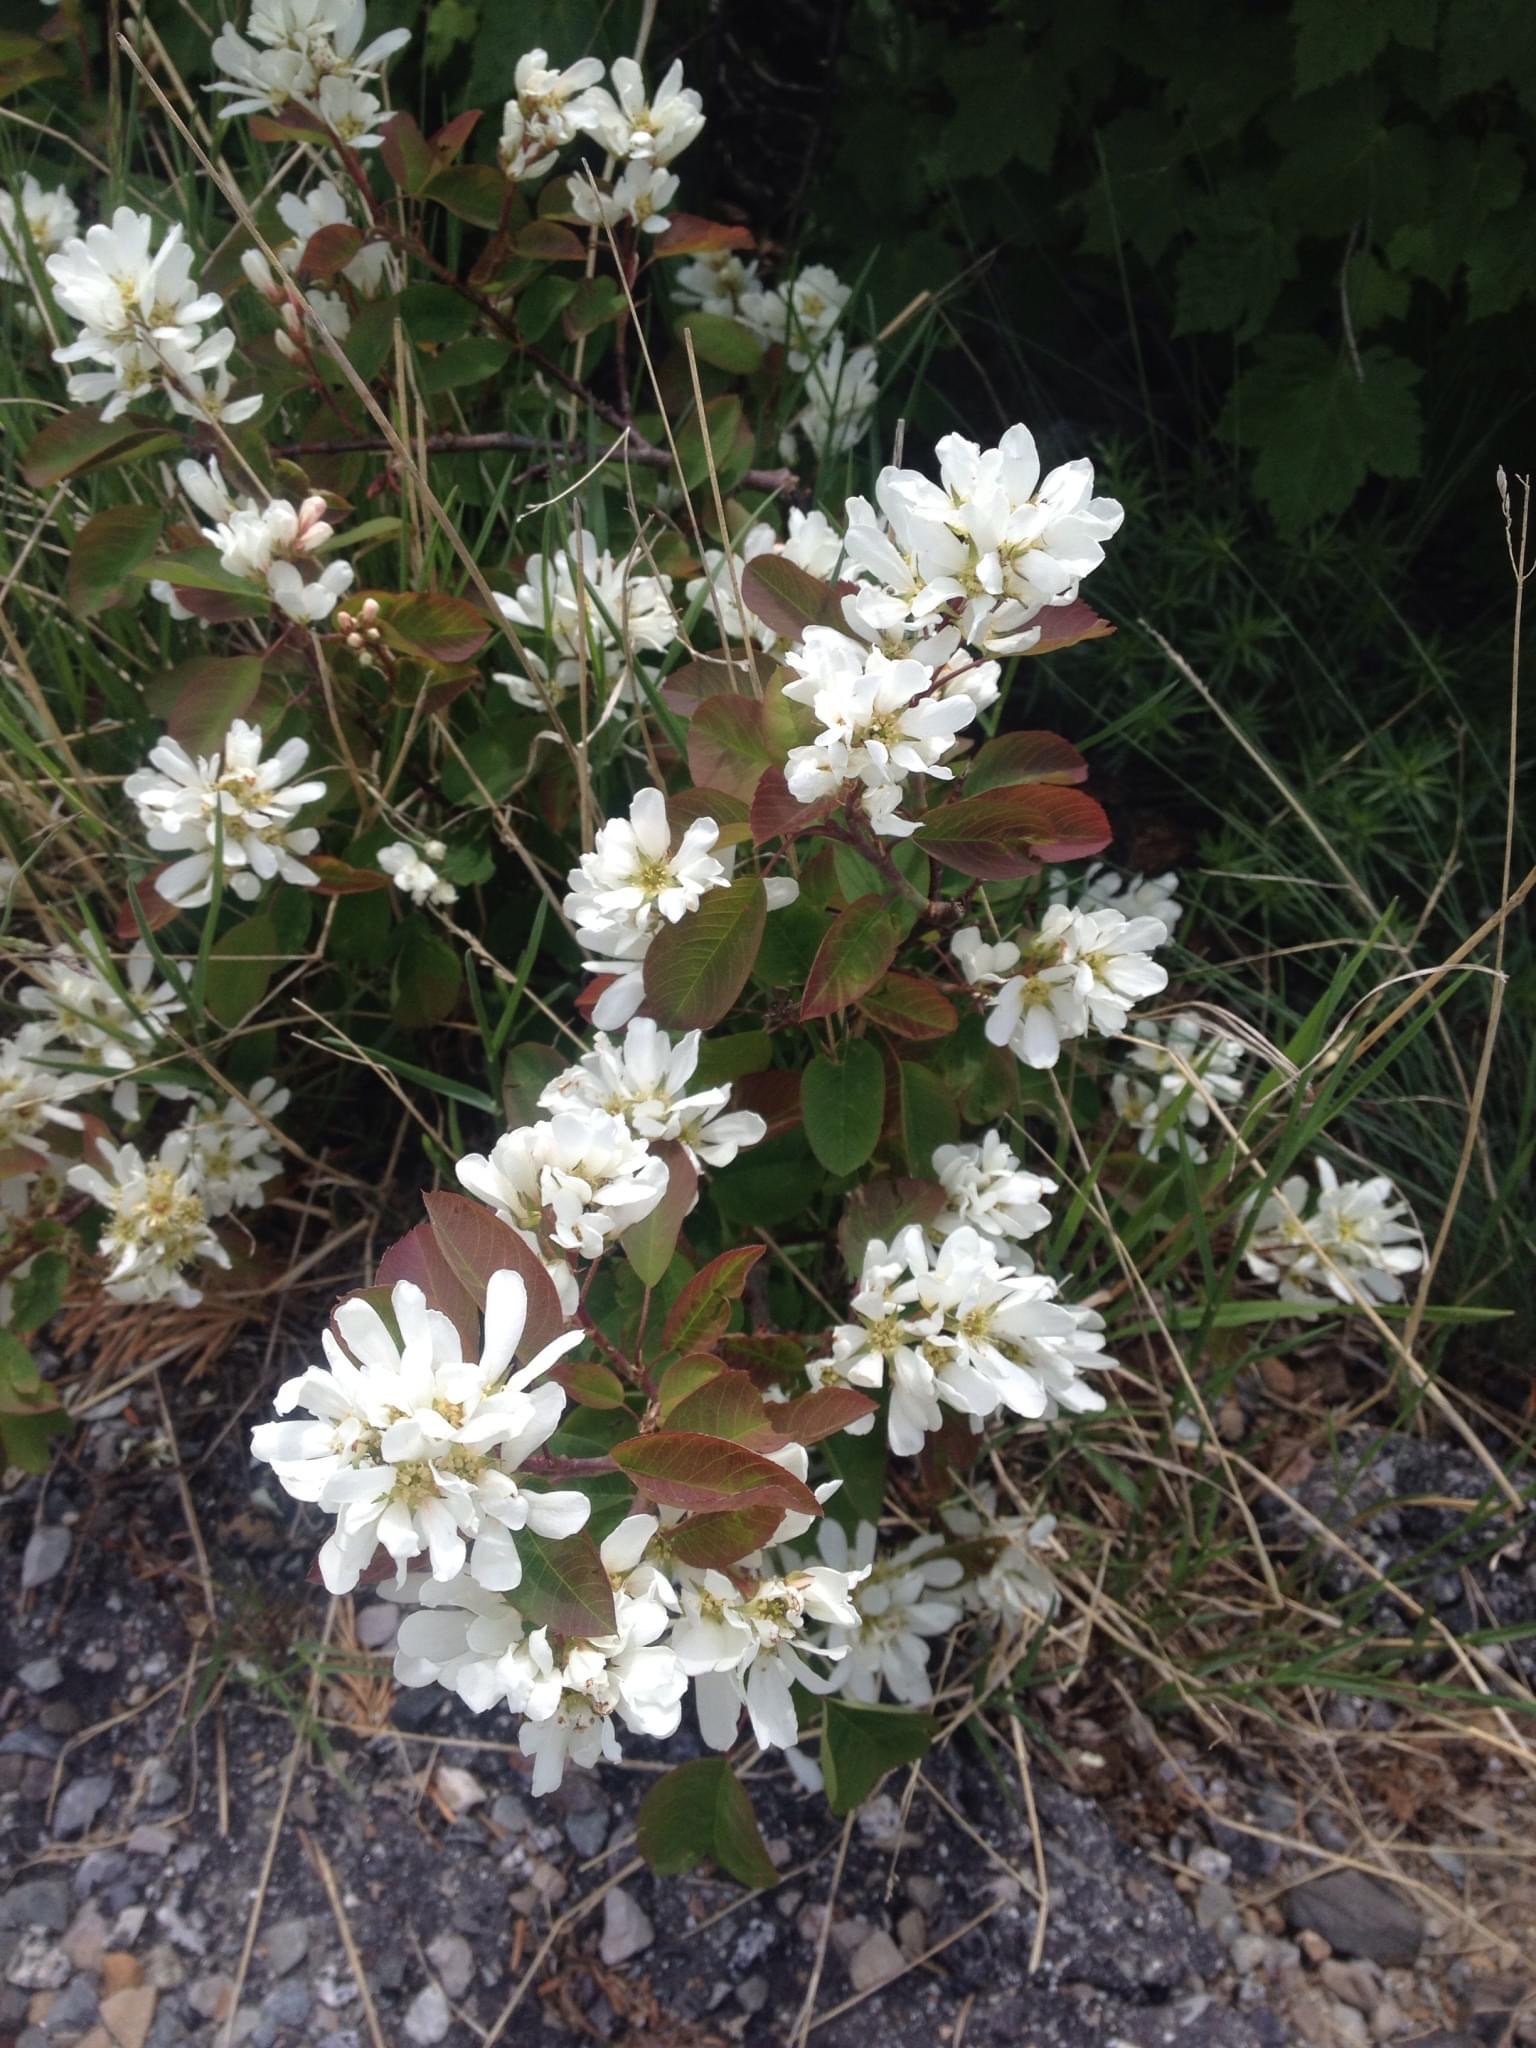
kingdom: Plantae
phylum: Tracheophyta
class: Magnoliopsida
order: Rosales
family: Rosaceae
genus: Amelanchier
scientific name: Amelanchier alnifolia
